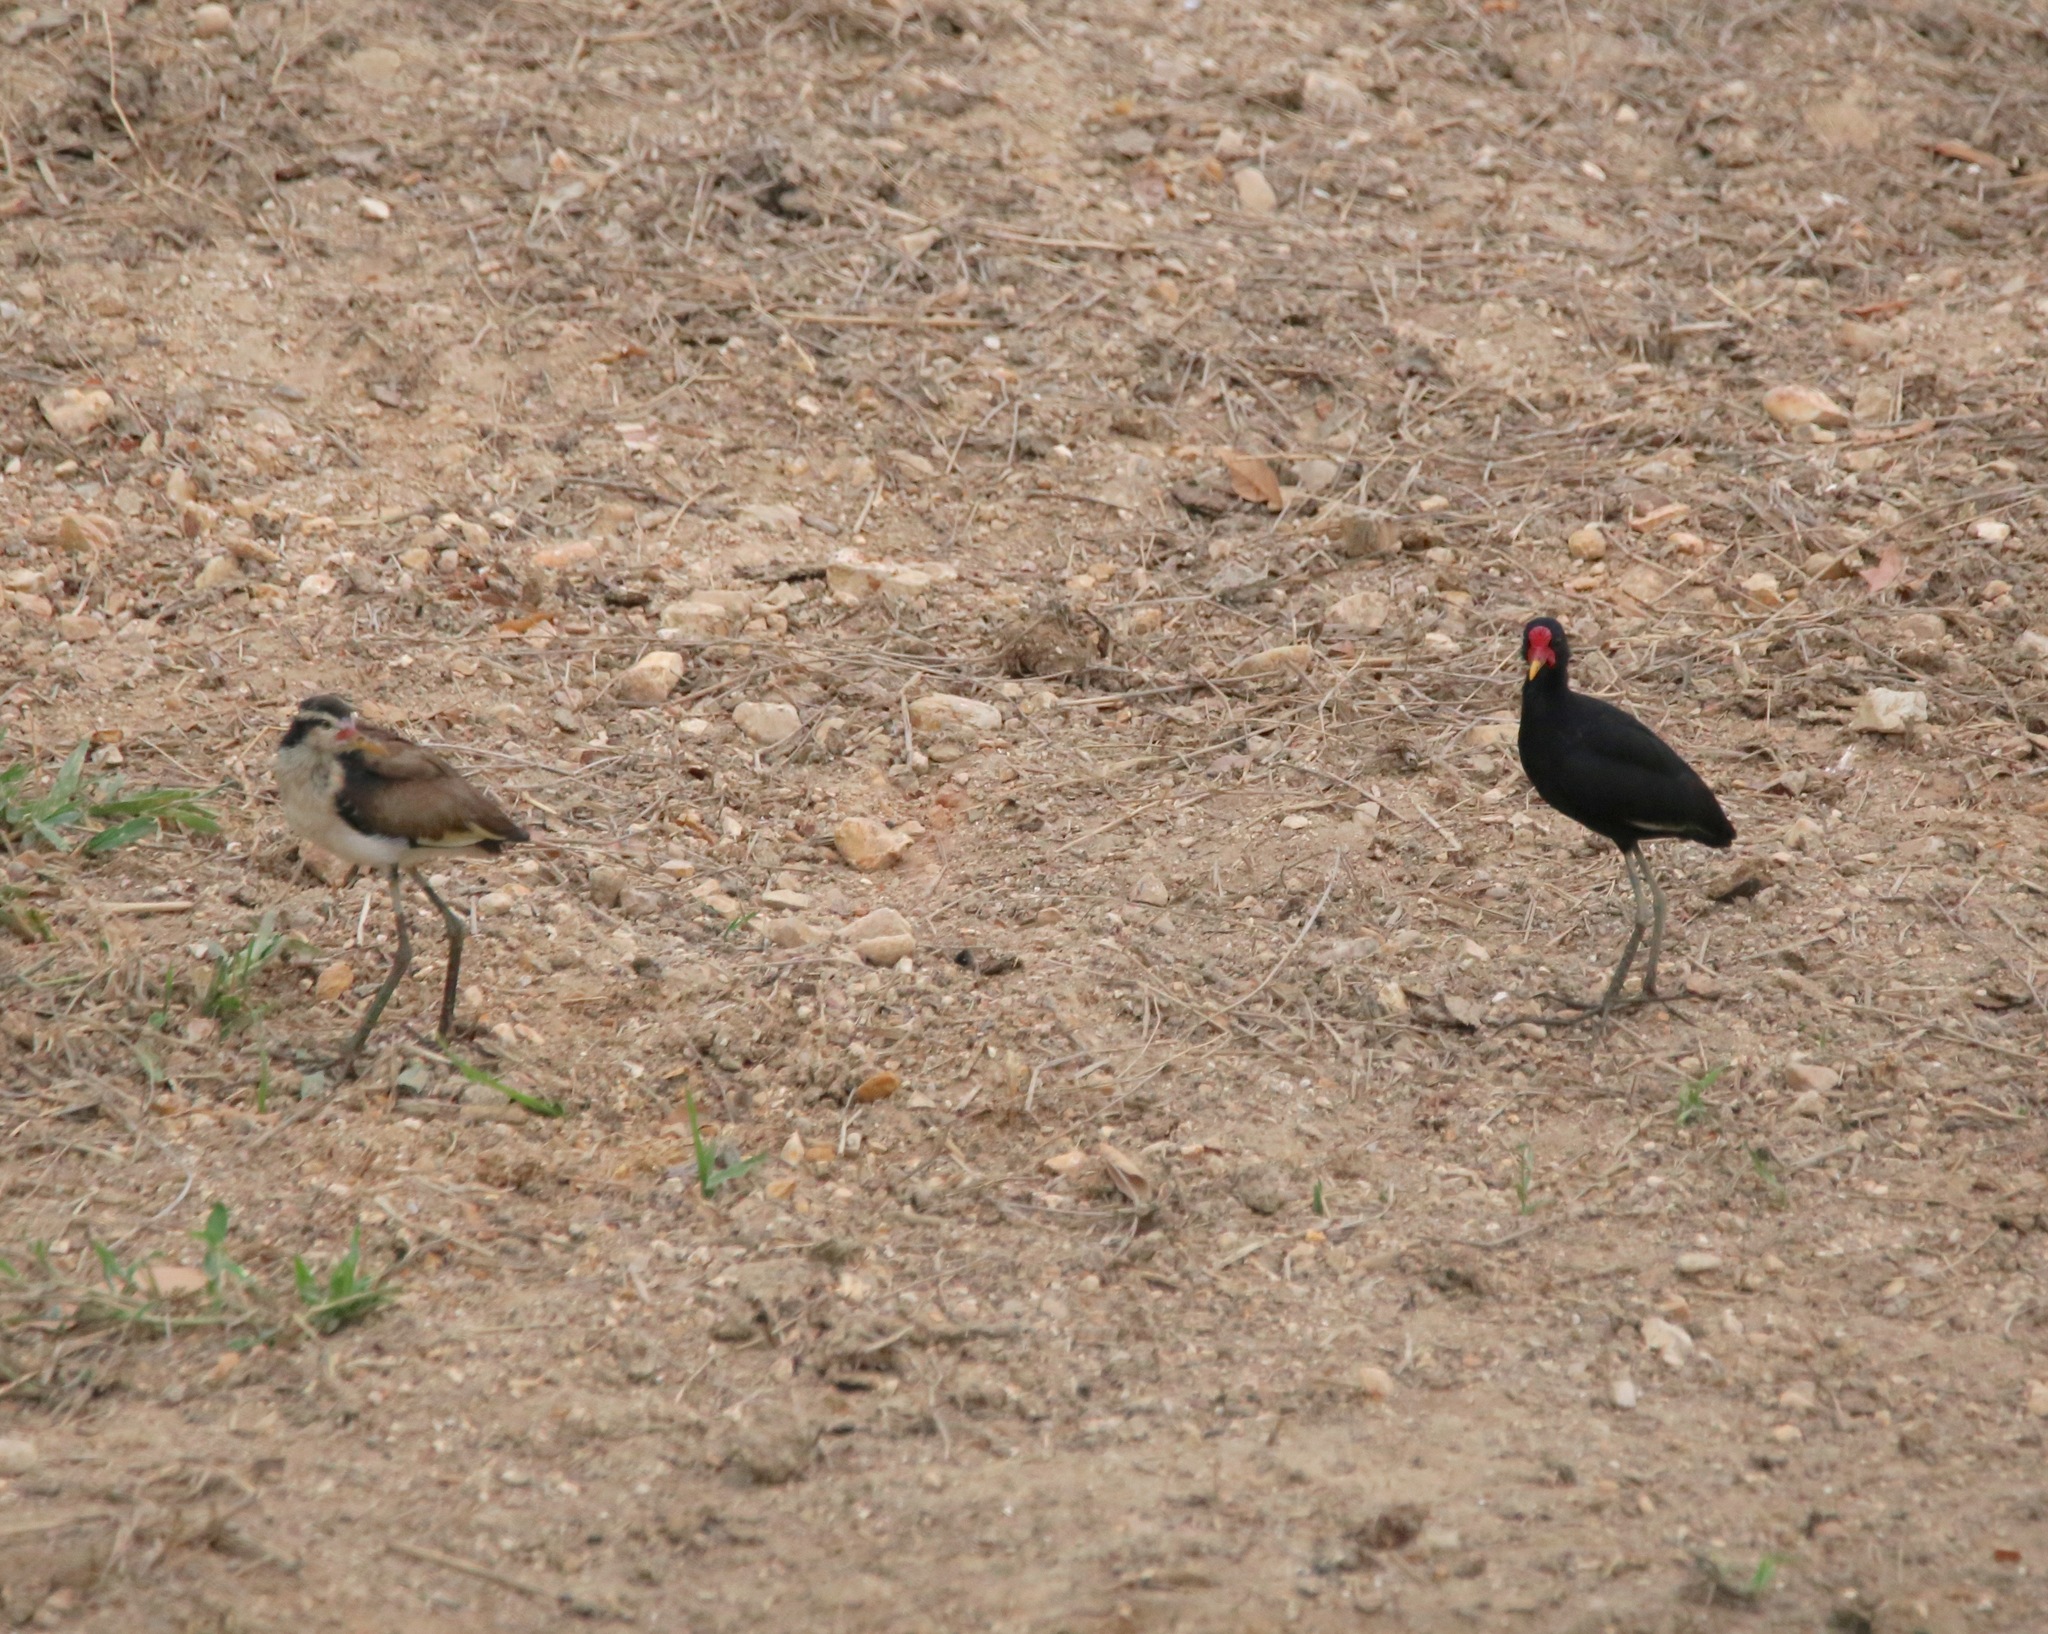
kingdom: Animalia
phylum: Chordata
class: Aves
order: Charadriiformes
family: Jacanidae
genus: Jacana
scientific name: Jacana jacana
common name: Wattled jacana
